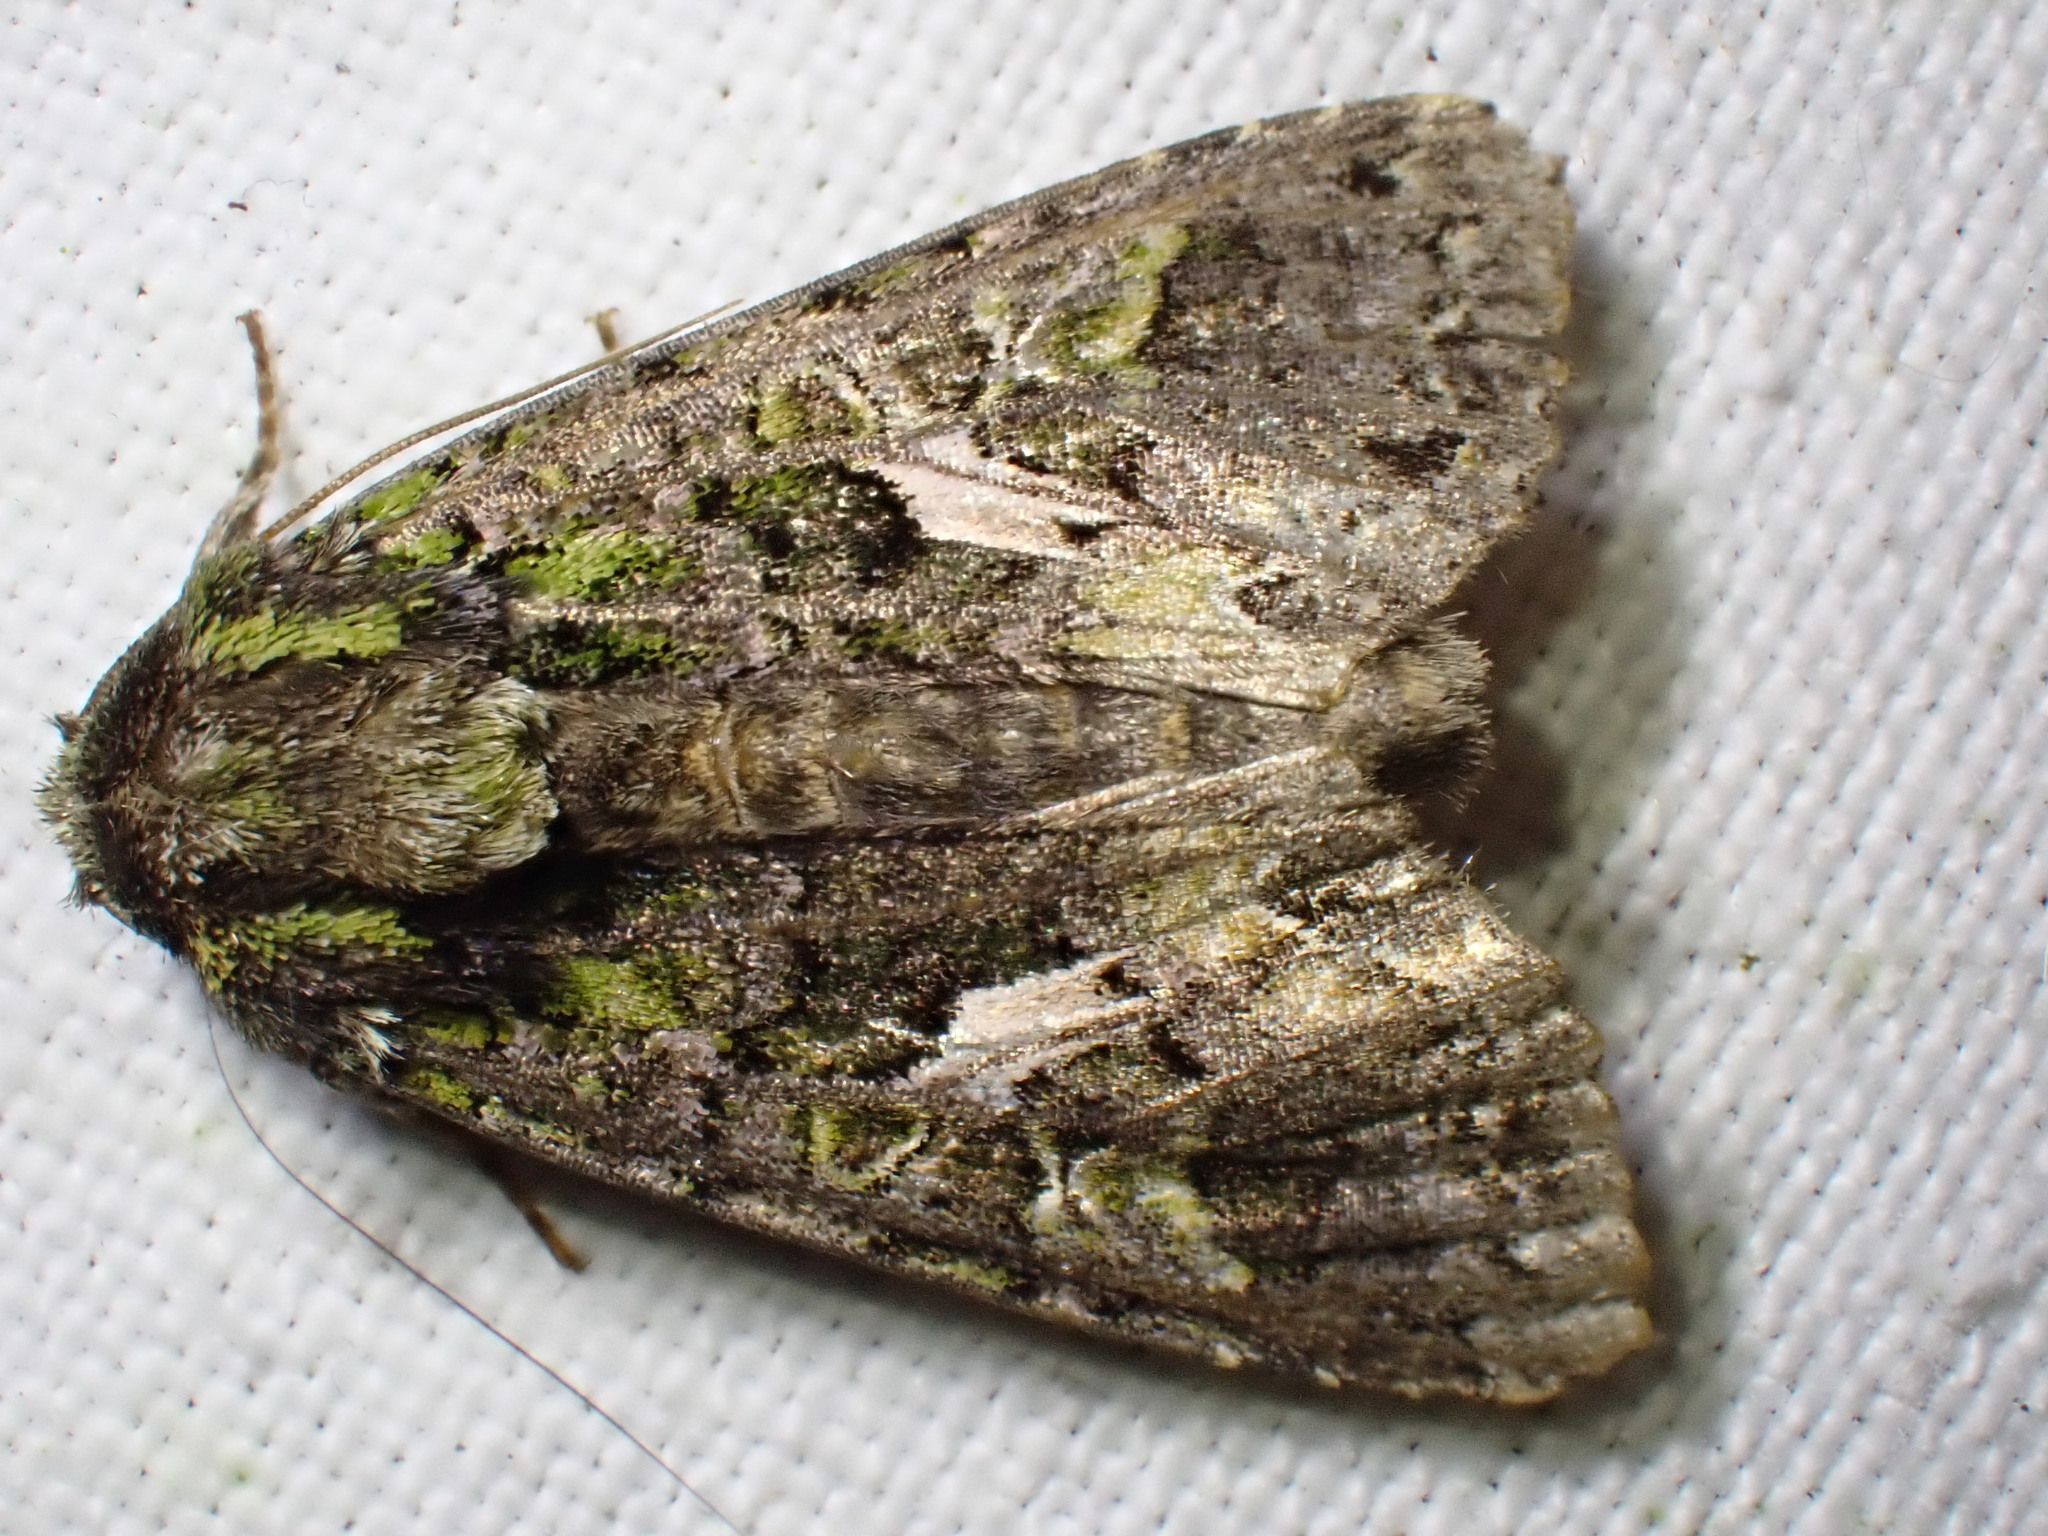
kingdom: Animalia
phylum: Arthropoda
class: Insecta
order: Lepidoptera
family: Noctuidae
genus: Trachea
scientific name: Trachea atriplicis
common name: Orache moth
